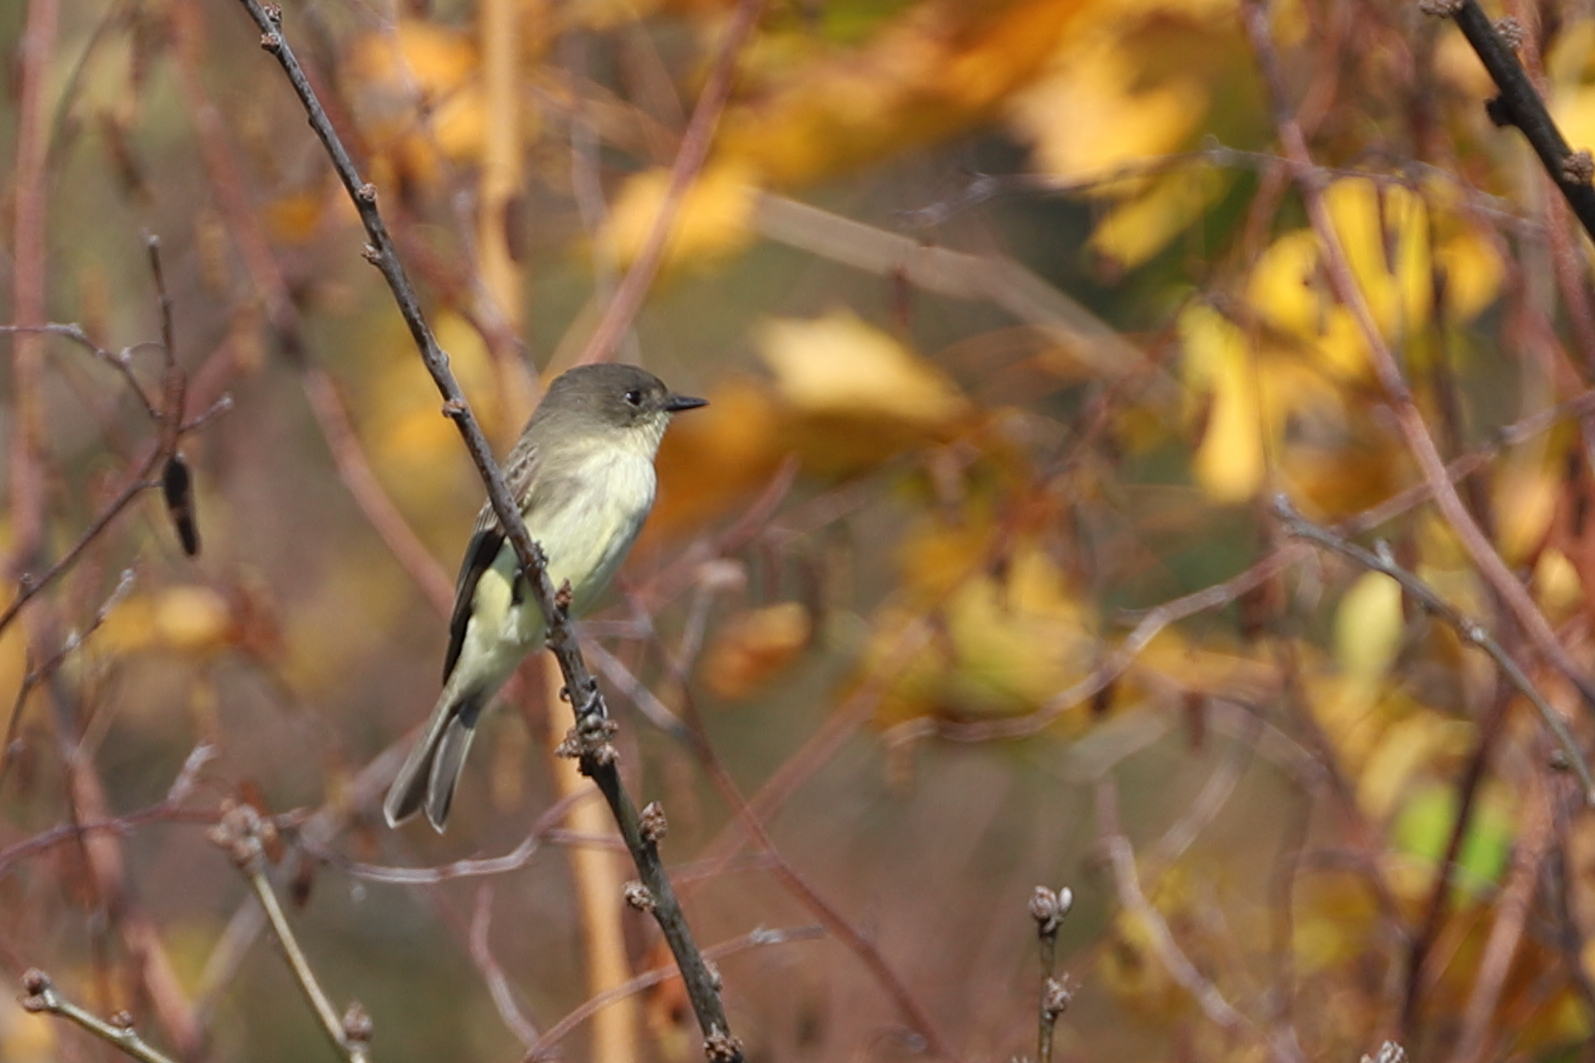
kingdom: Animalia
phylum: Chordata
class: Aves
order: Passeriformes
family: Tyrannidae
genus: Sayornis
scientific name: Sayornis phoebe
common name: Eastern phoebe
